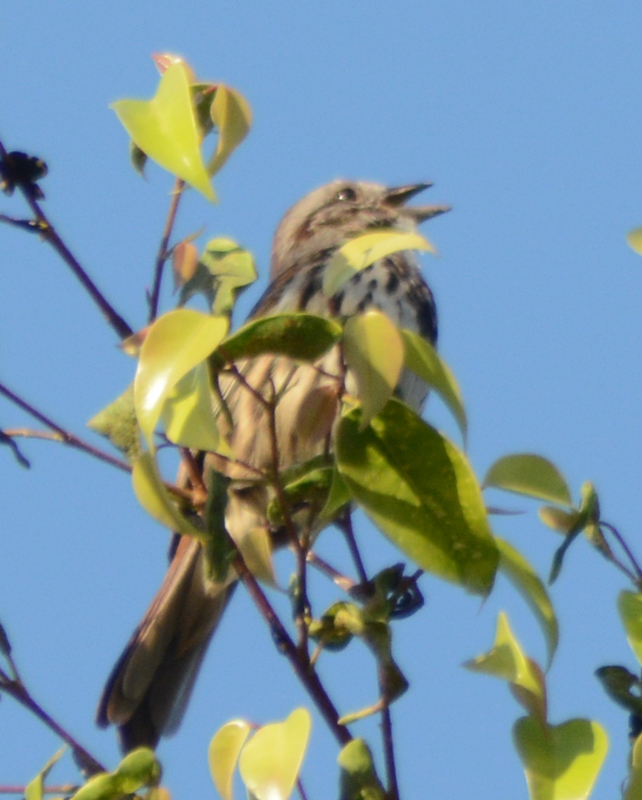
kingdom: Animalia
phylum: Chordata
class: Aves
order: Passeriformes
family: Passerellidae
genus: Melospiza
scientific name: Melospiza melodia
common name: Song sparrow
